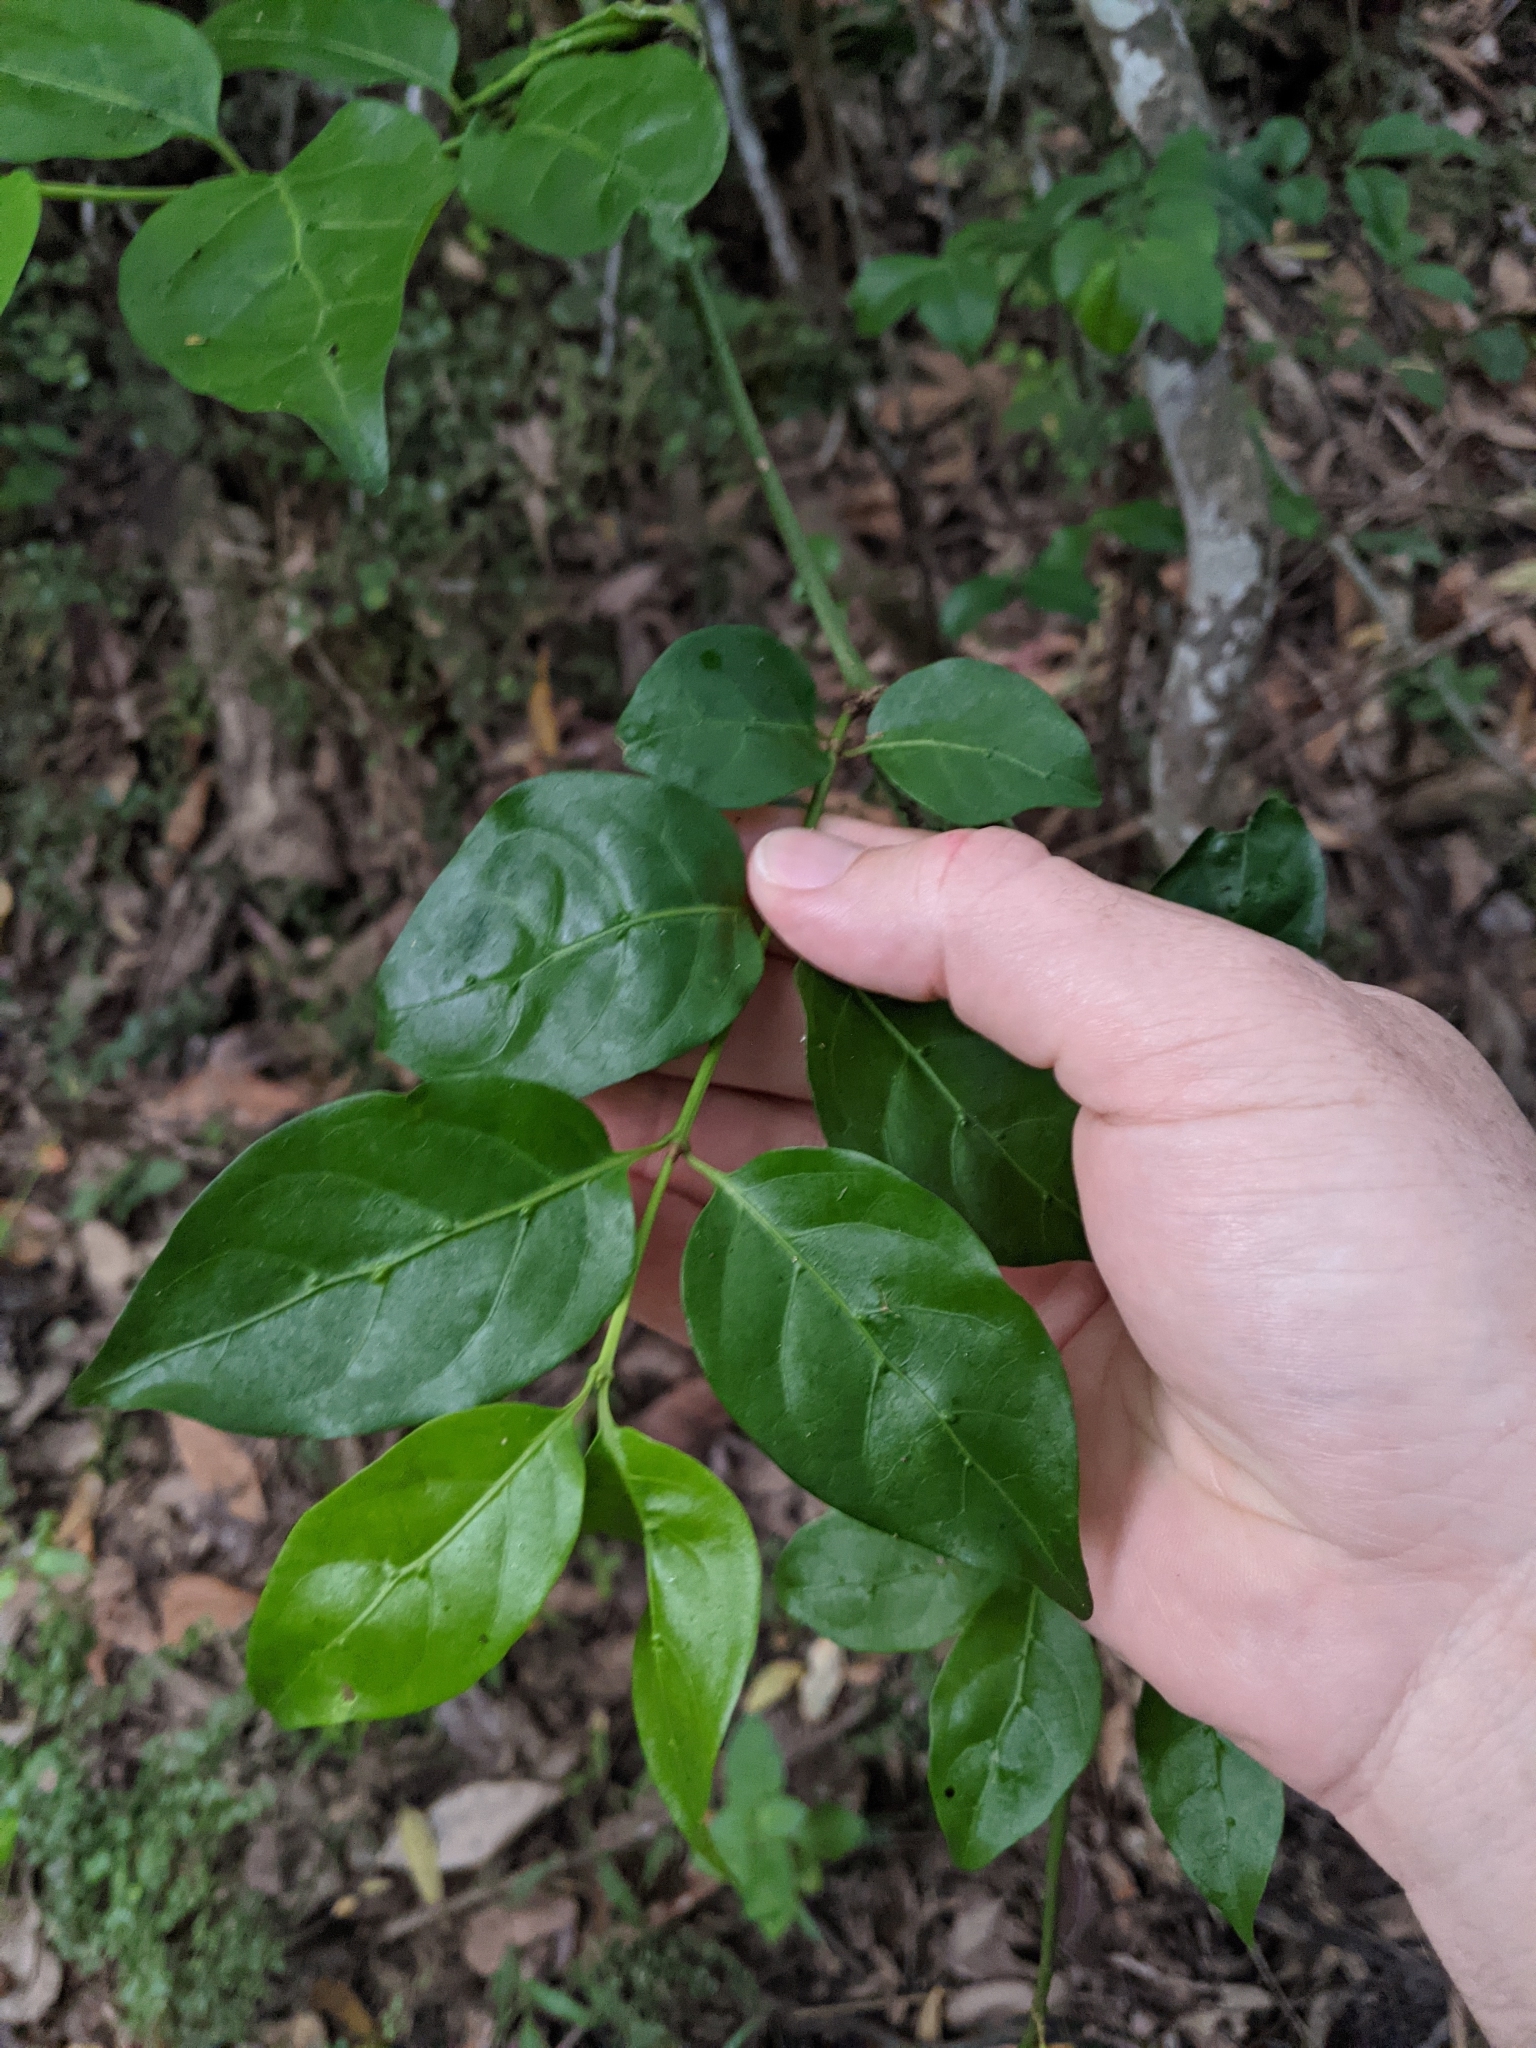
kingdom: Plantae
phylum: Tracheophyta
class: Magnoliopsida
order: Gentianales
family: Rubiaceae
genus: Gynochthodes
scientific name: Gynochthodes jasminoides
